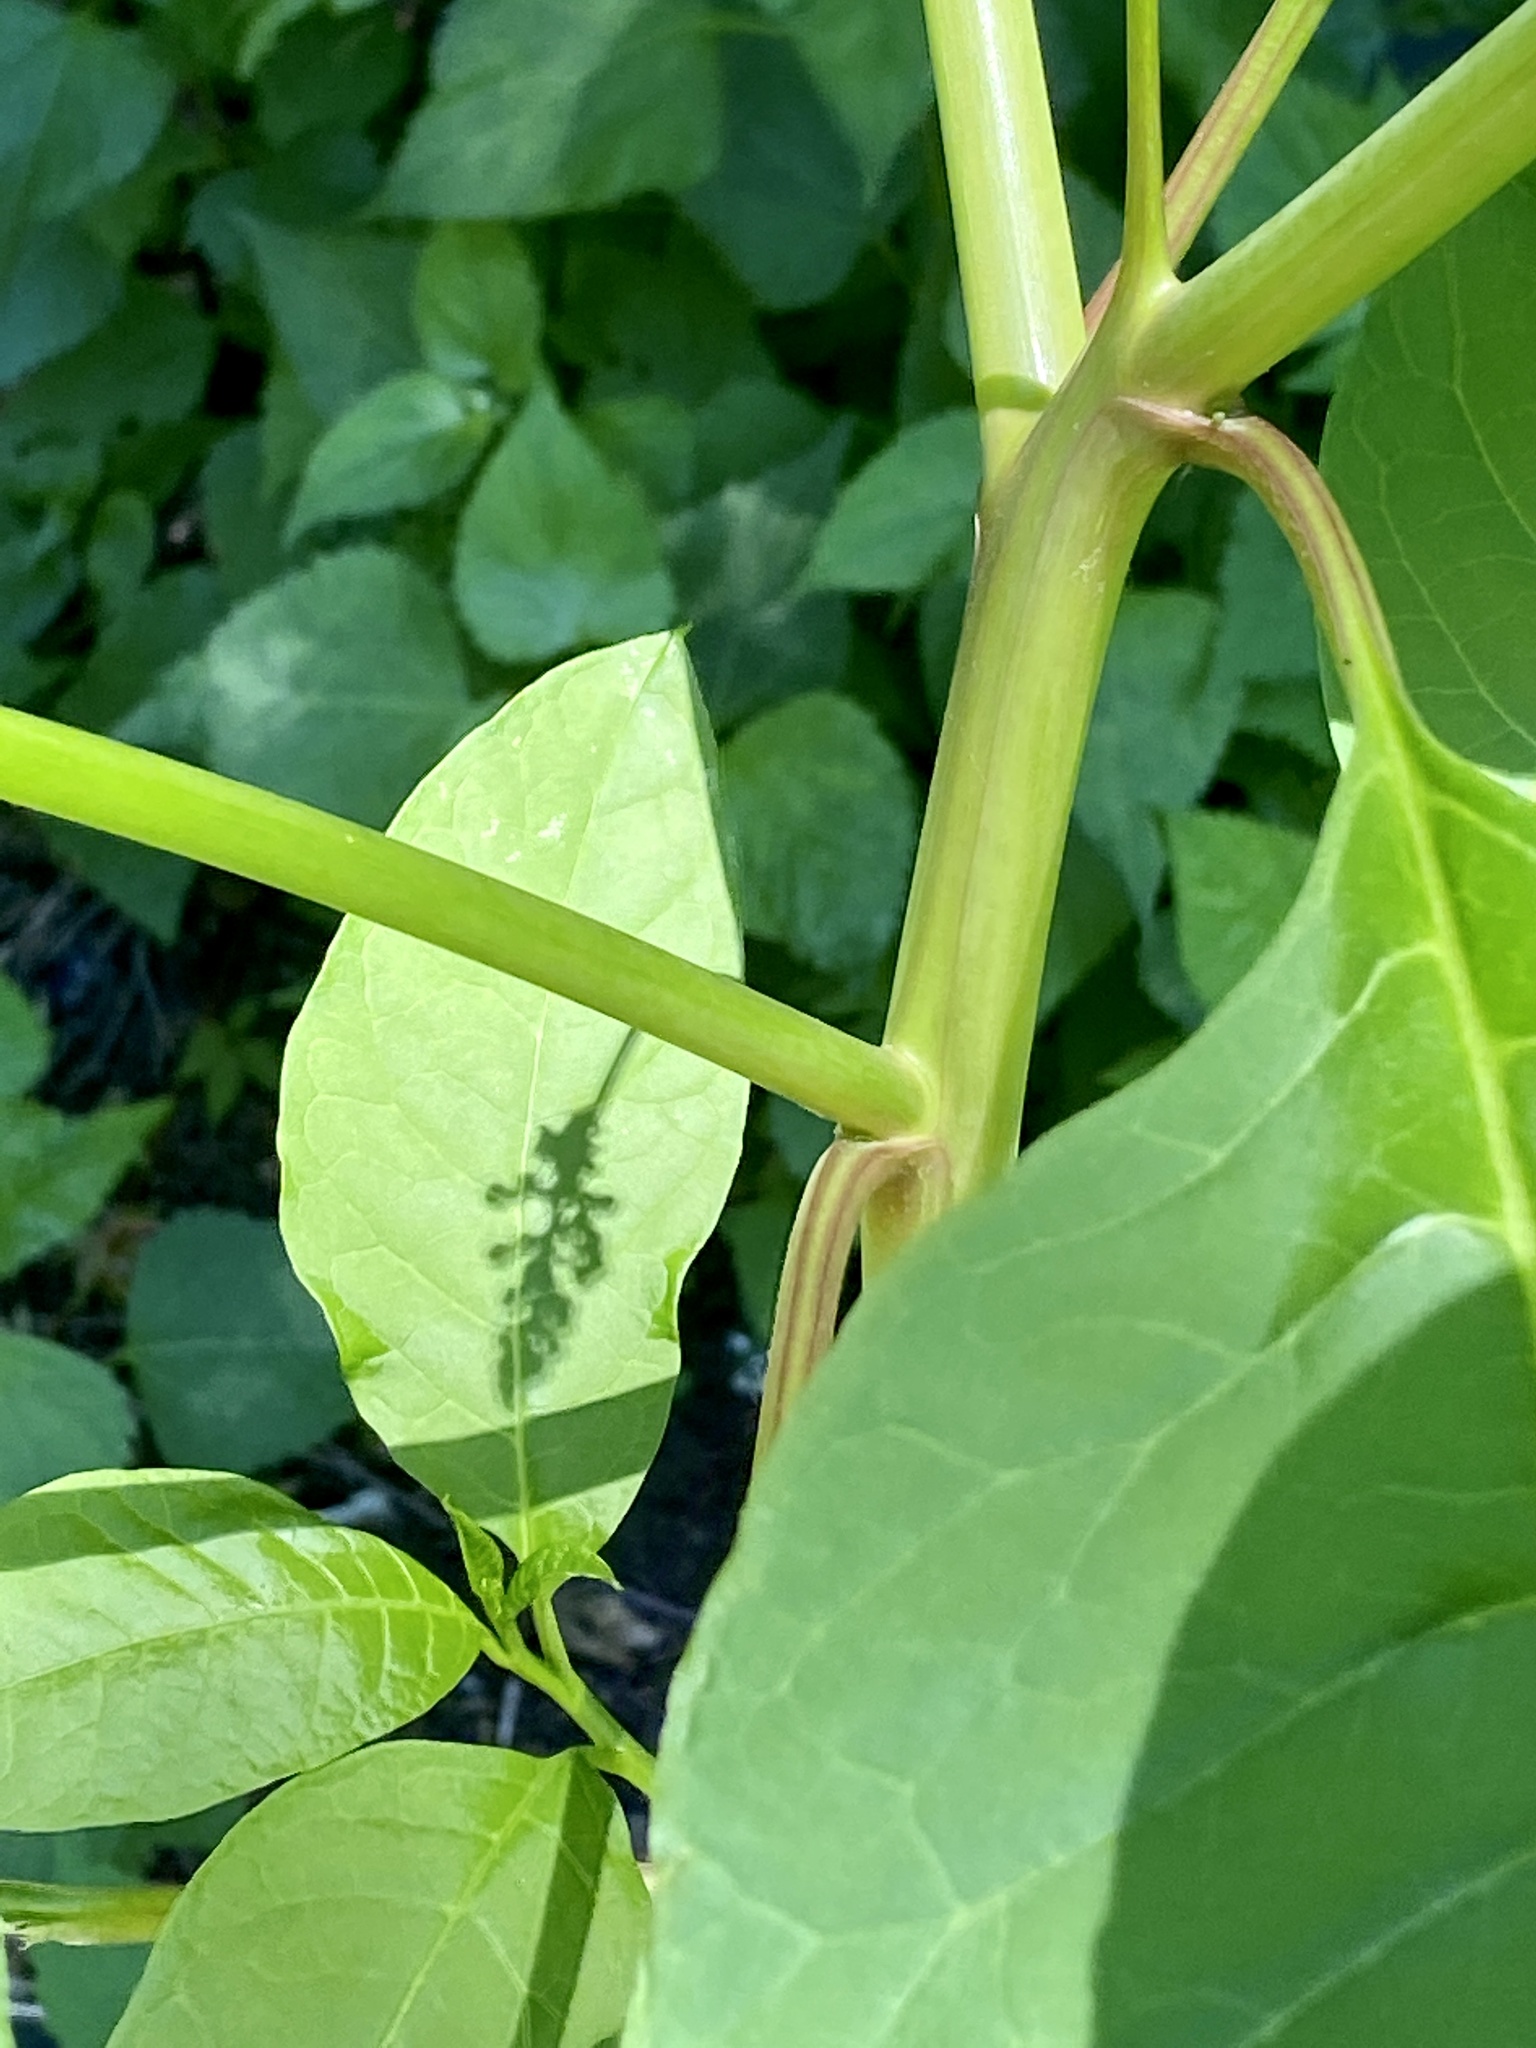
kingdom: Plantae
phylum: Tracheophyta
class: Magnoliopsida
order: Caryophyllales
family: Phytolaccaceae
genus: Phytolacca
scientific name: Phytolacca americana
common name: American pokeweed
